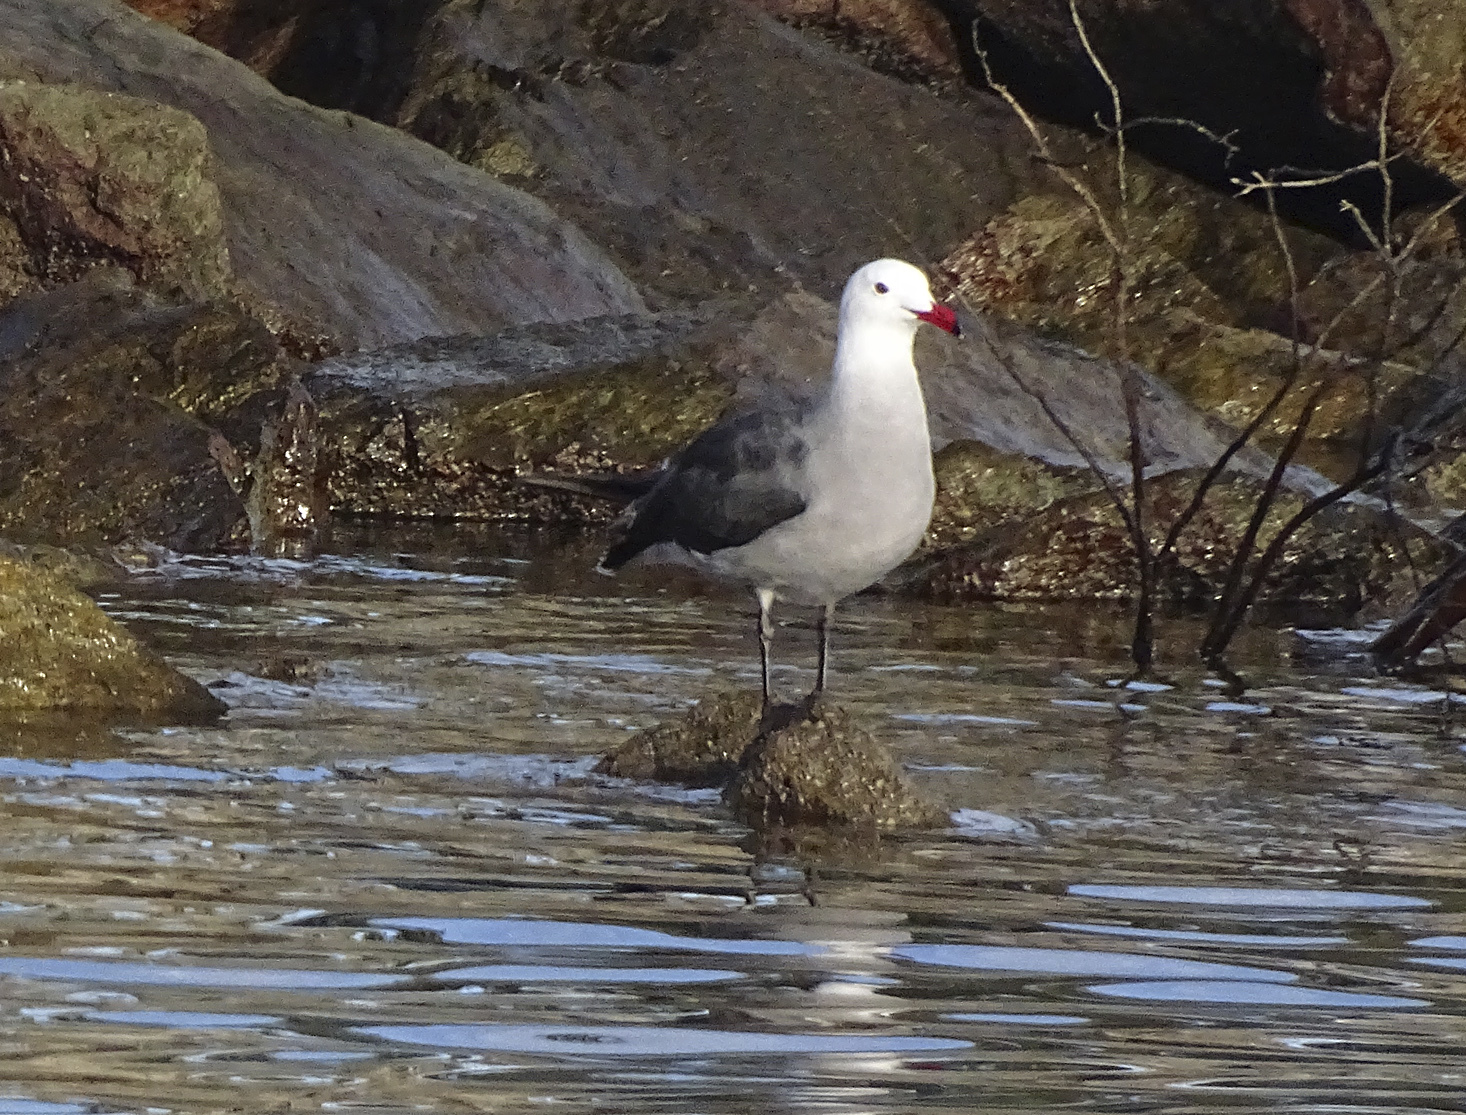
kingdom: Animalia
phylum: Chordata
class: Aves
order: Charadriiformes
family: Laridae
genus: Larus
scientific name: Larus heermanni
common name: Heermann's gull
